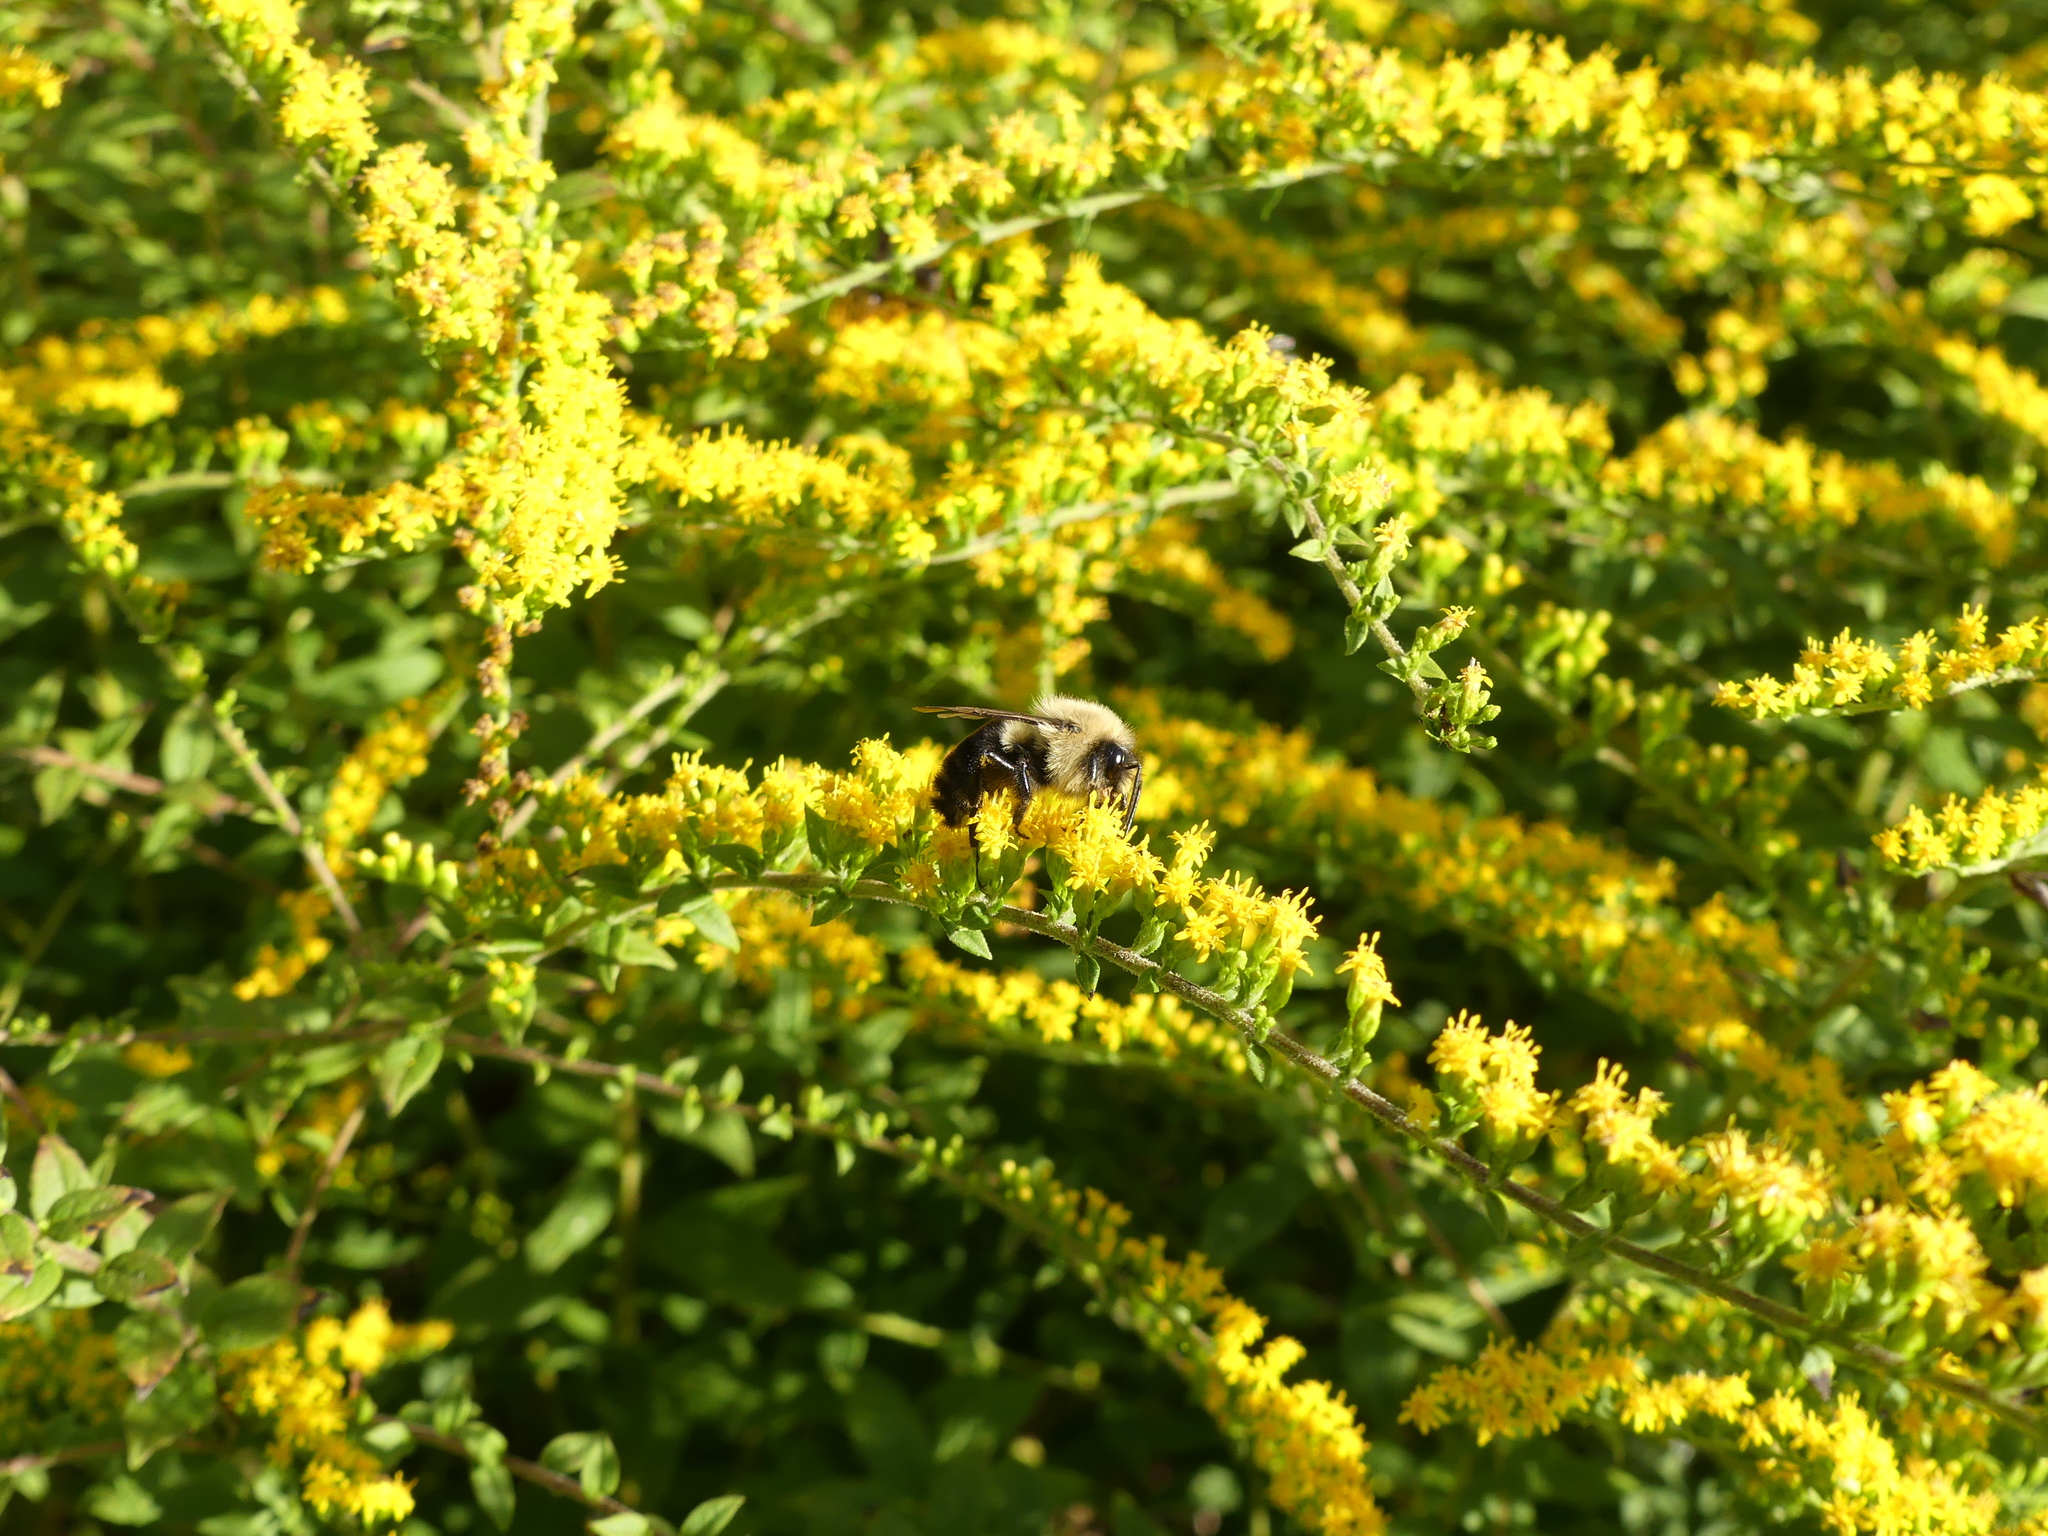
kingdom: Animalia
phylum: Arthropoda
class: Insecta
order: Hymenoptera
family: Apidae
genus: Bombus
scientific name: Bombus impatiens
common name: Common eastern bumble bee
